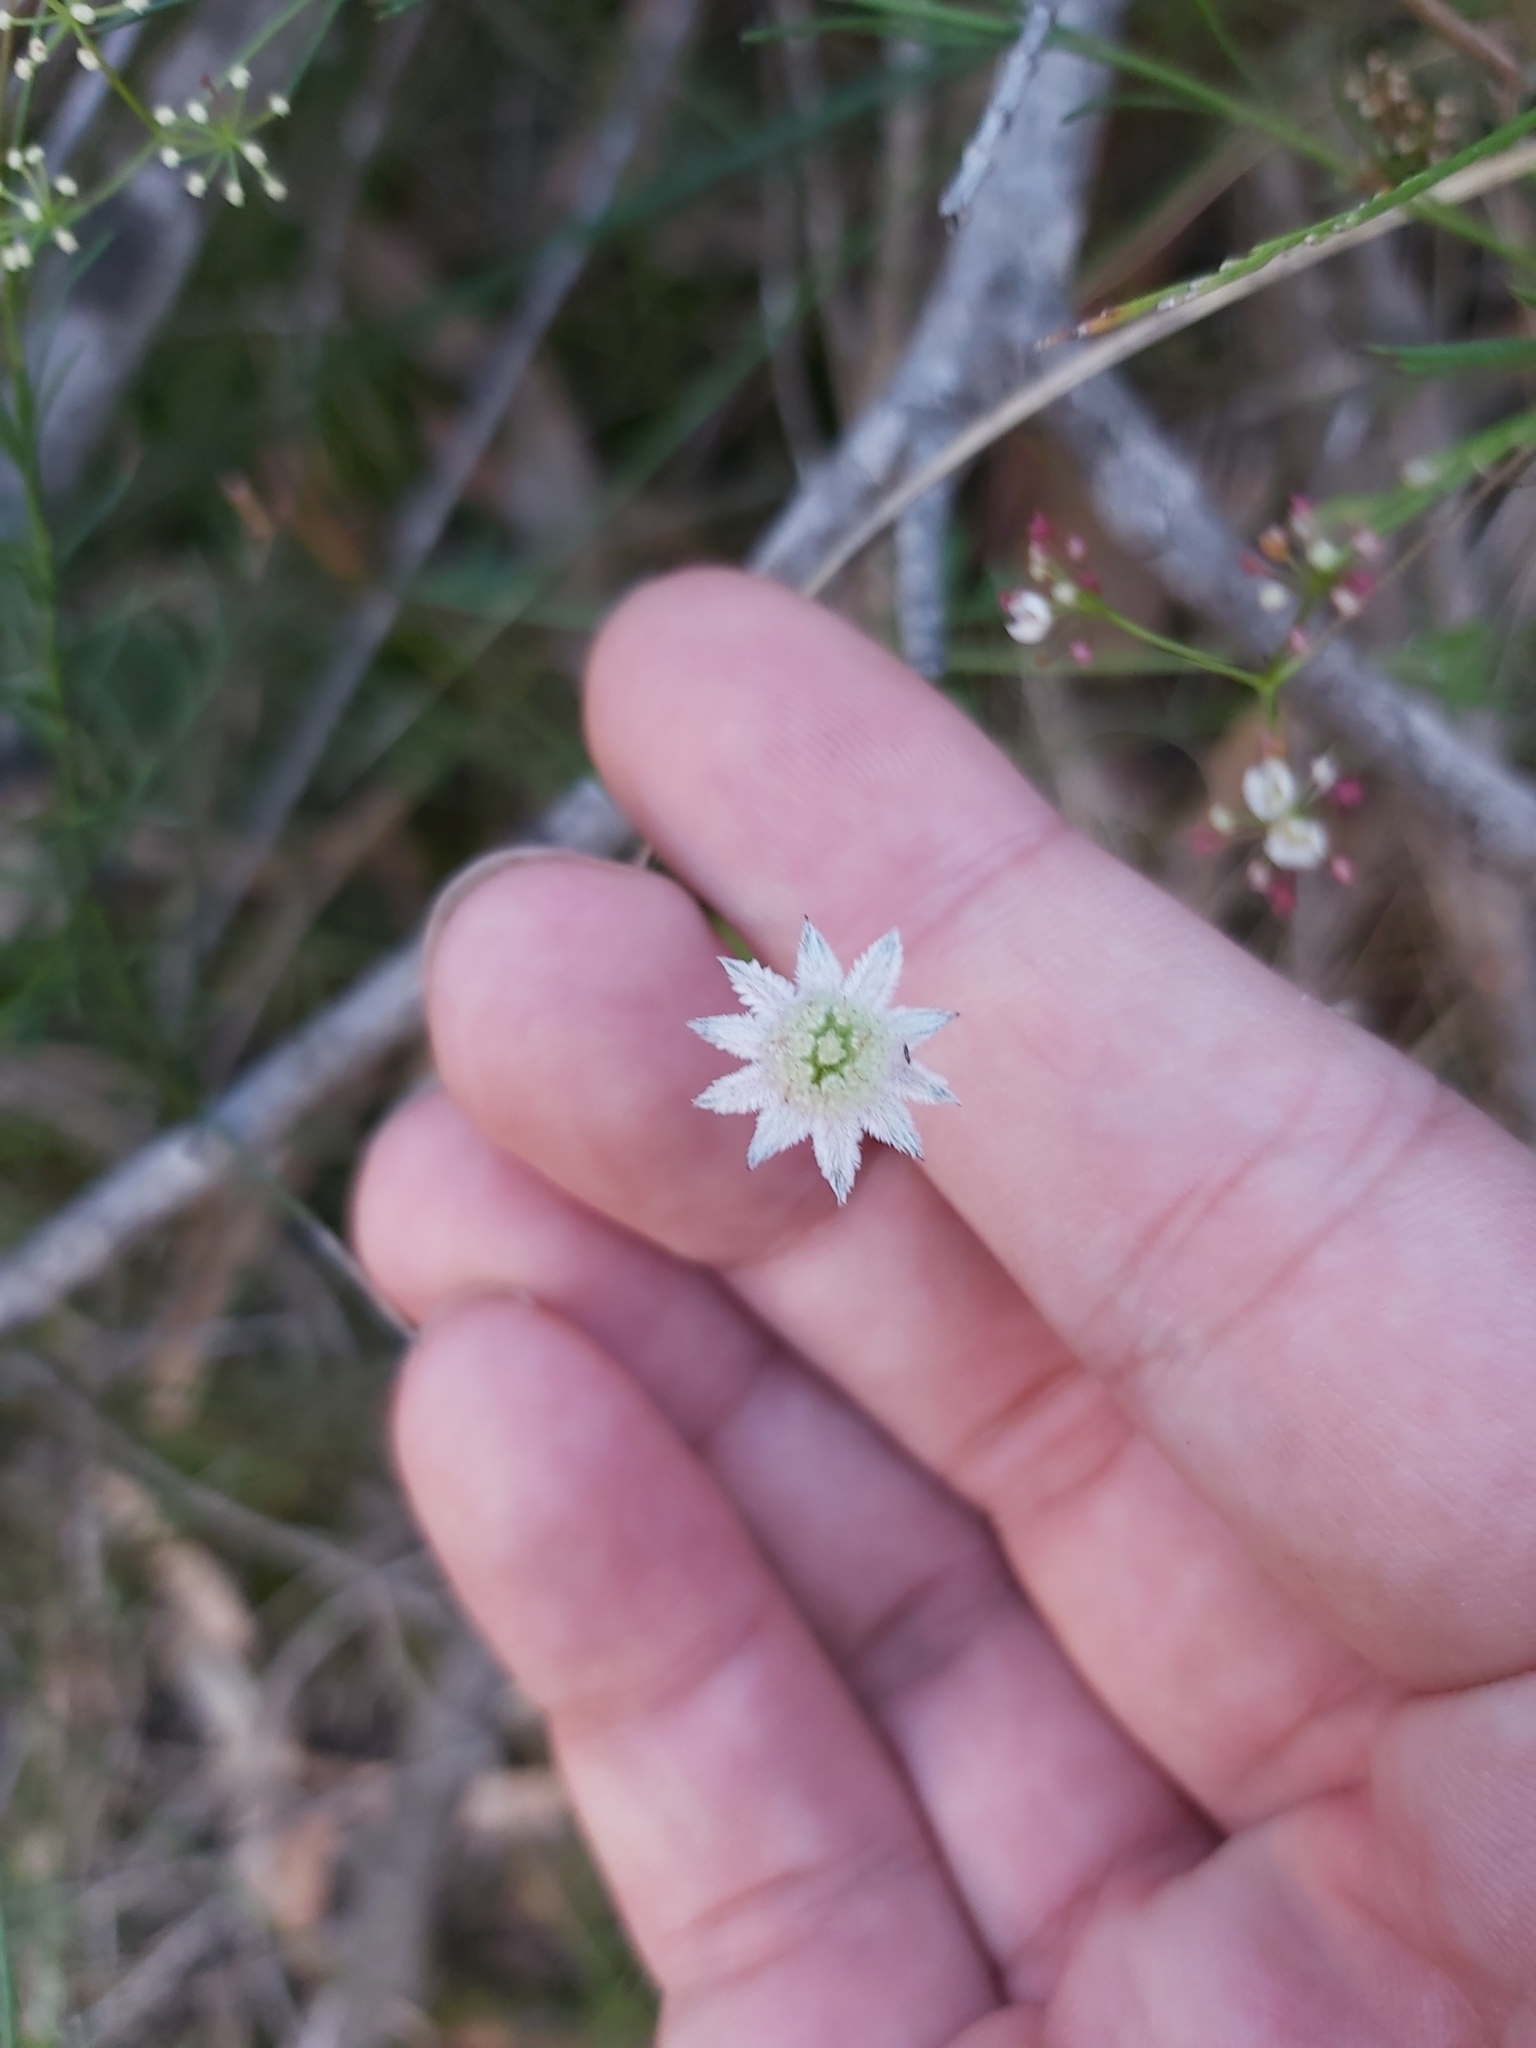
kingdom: Plantae
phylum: Tracheophyta
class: Magnoliopsida
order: Apiales
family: Apiaceae
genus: Actinotus
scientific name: Actinotus minor
